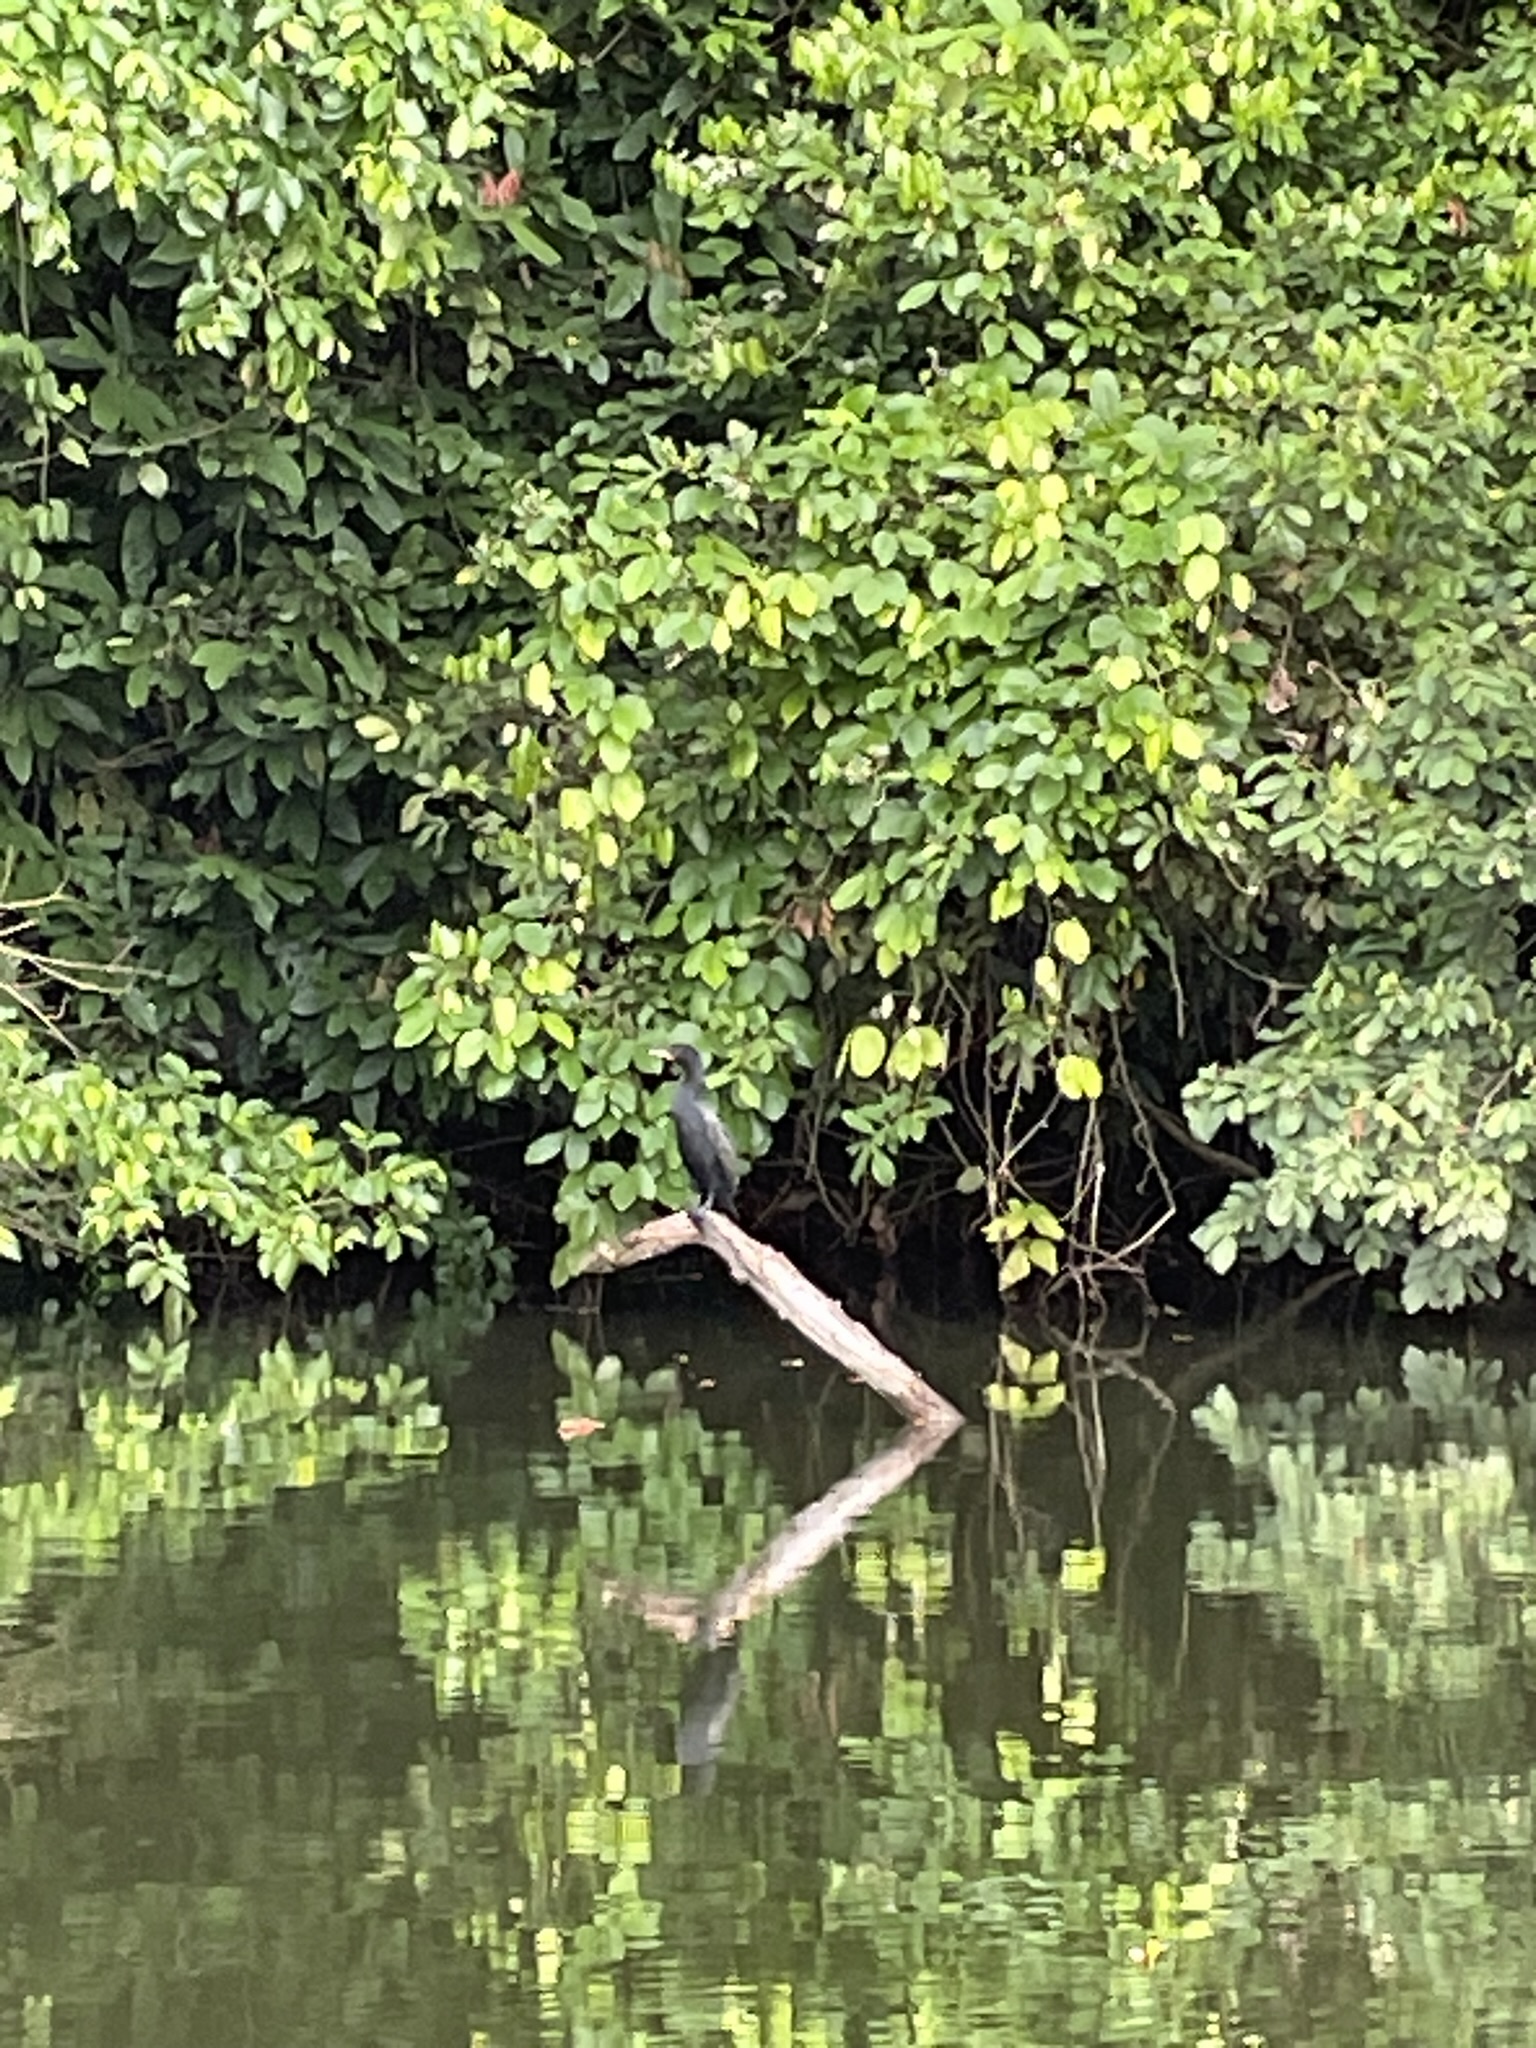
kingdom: Animalia
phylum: Chordata
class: Aves
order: Suliformes
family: Phalacrocoracidae
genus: Phalacrocorax
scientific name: Phalacrocorax brasilianus
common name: Neotropic cormorant
